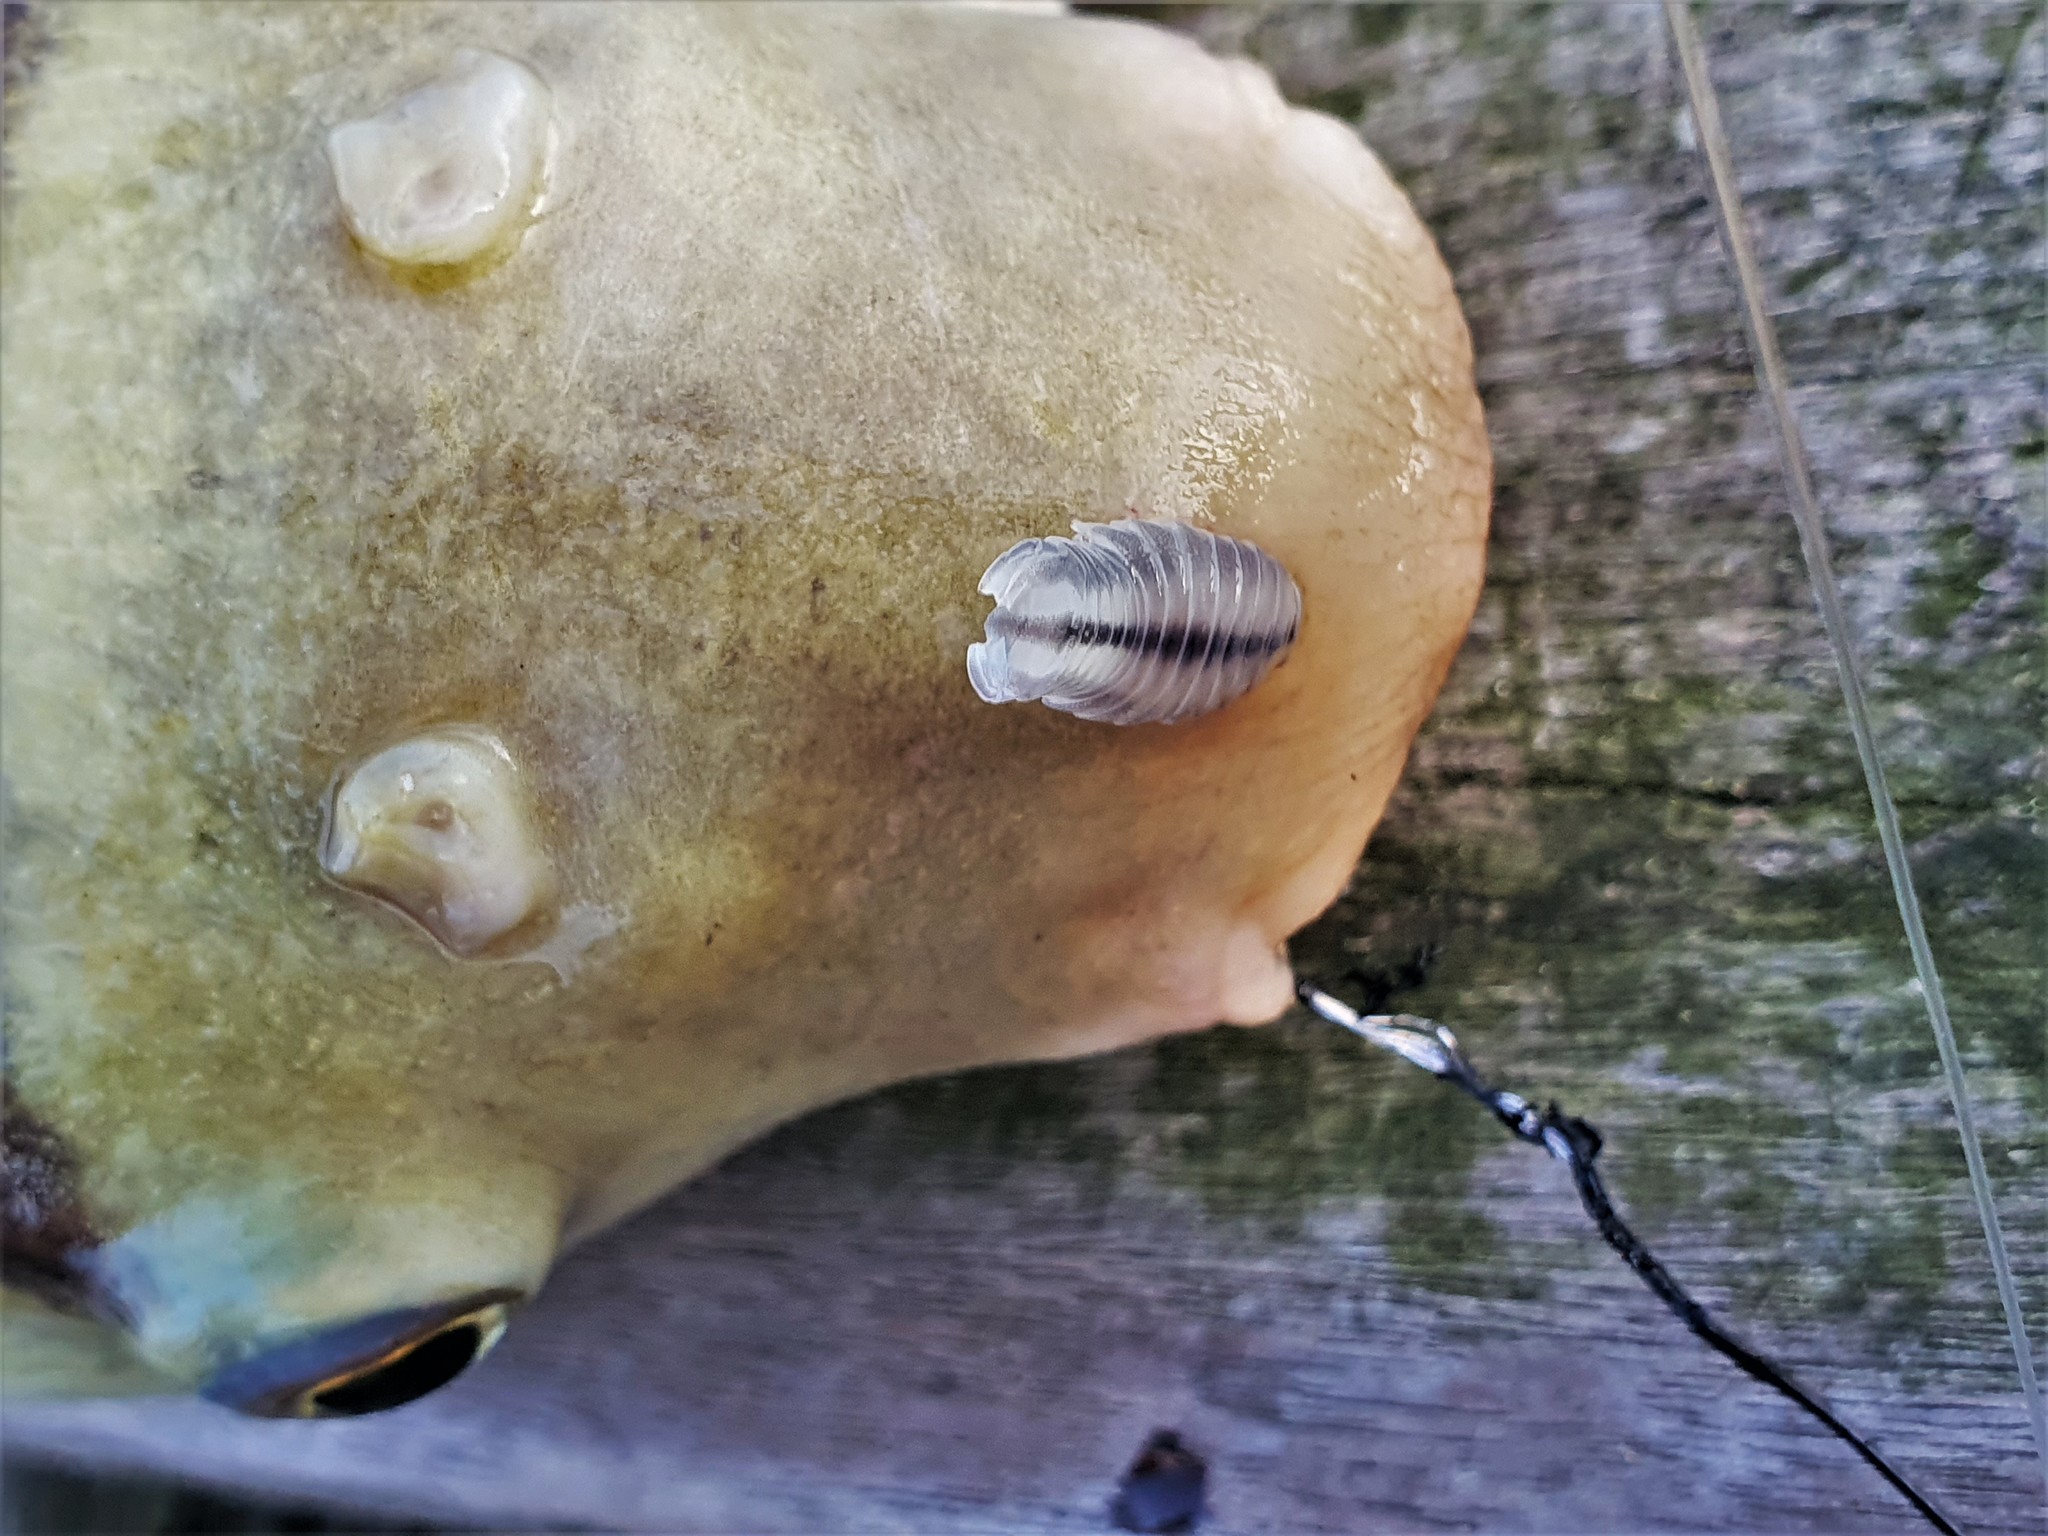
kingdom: Animalia
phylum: Arthropoda
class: Malacostraca
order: Isopoda
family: Cymothoidae
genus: Nerocila
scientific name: Nerocila fluviatilis
